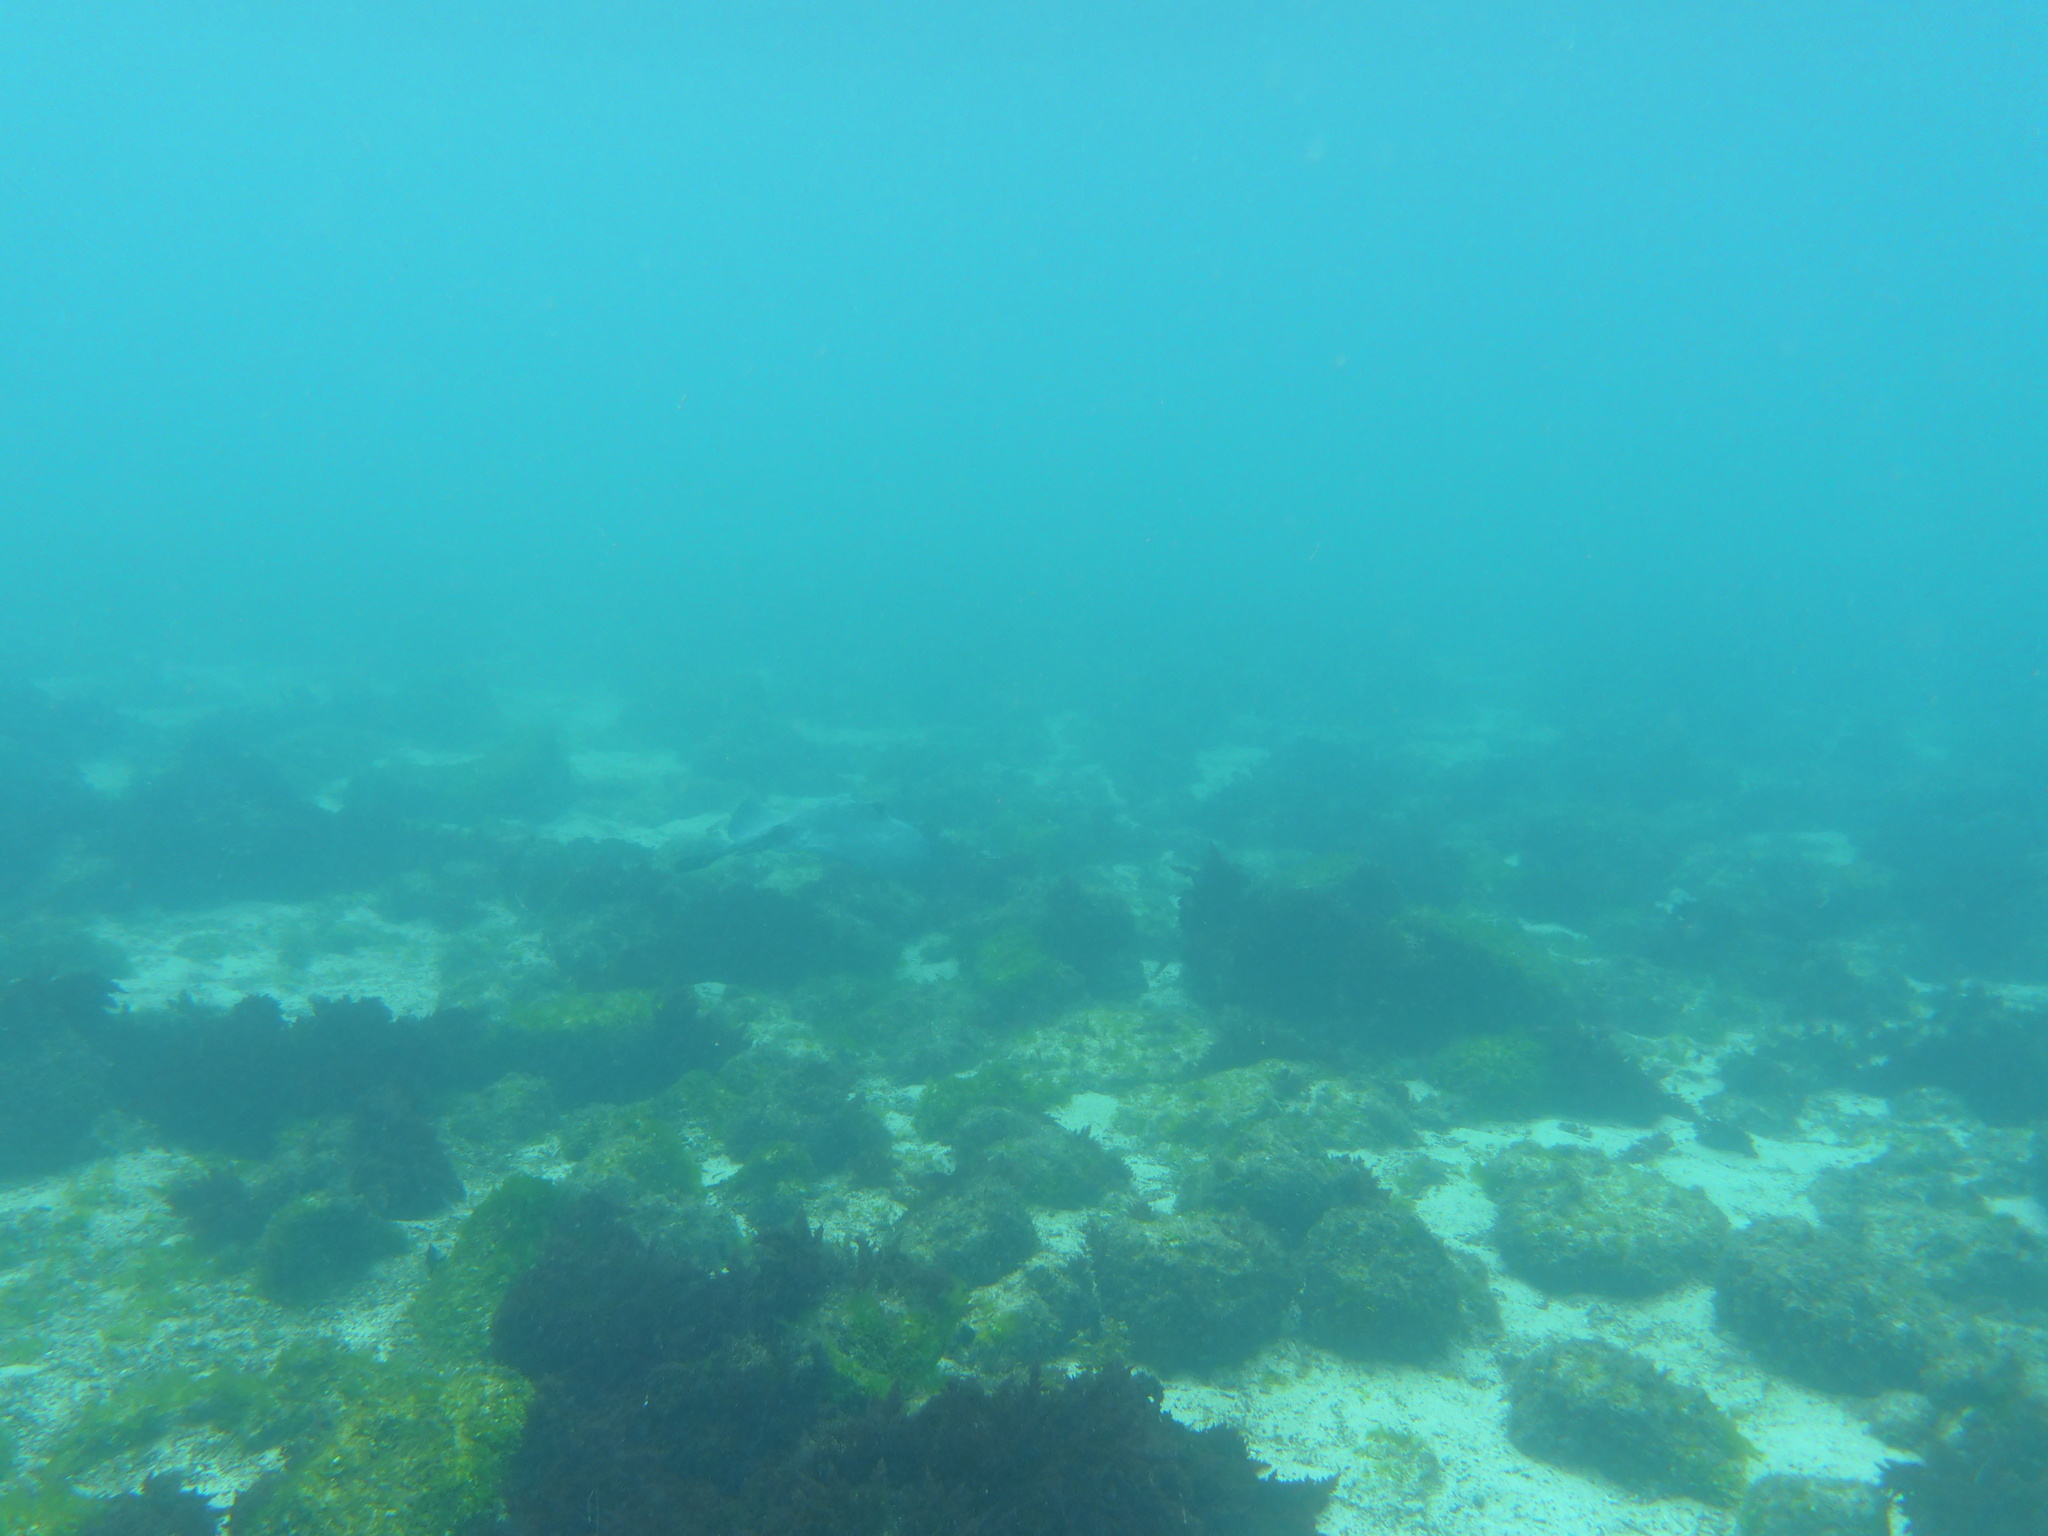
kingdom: Animalia
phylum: Chordata
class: Elasmobranchii
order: Myliobatiformes
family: Dasyatidae
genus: Hypanus
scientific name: Hypanus dipterurus
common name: Diamond stingray
